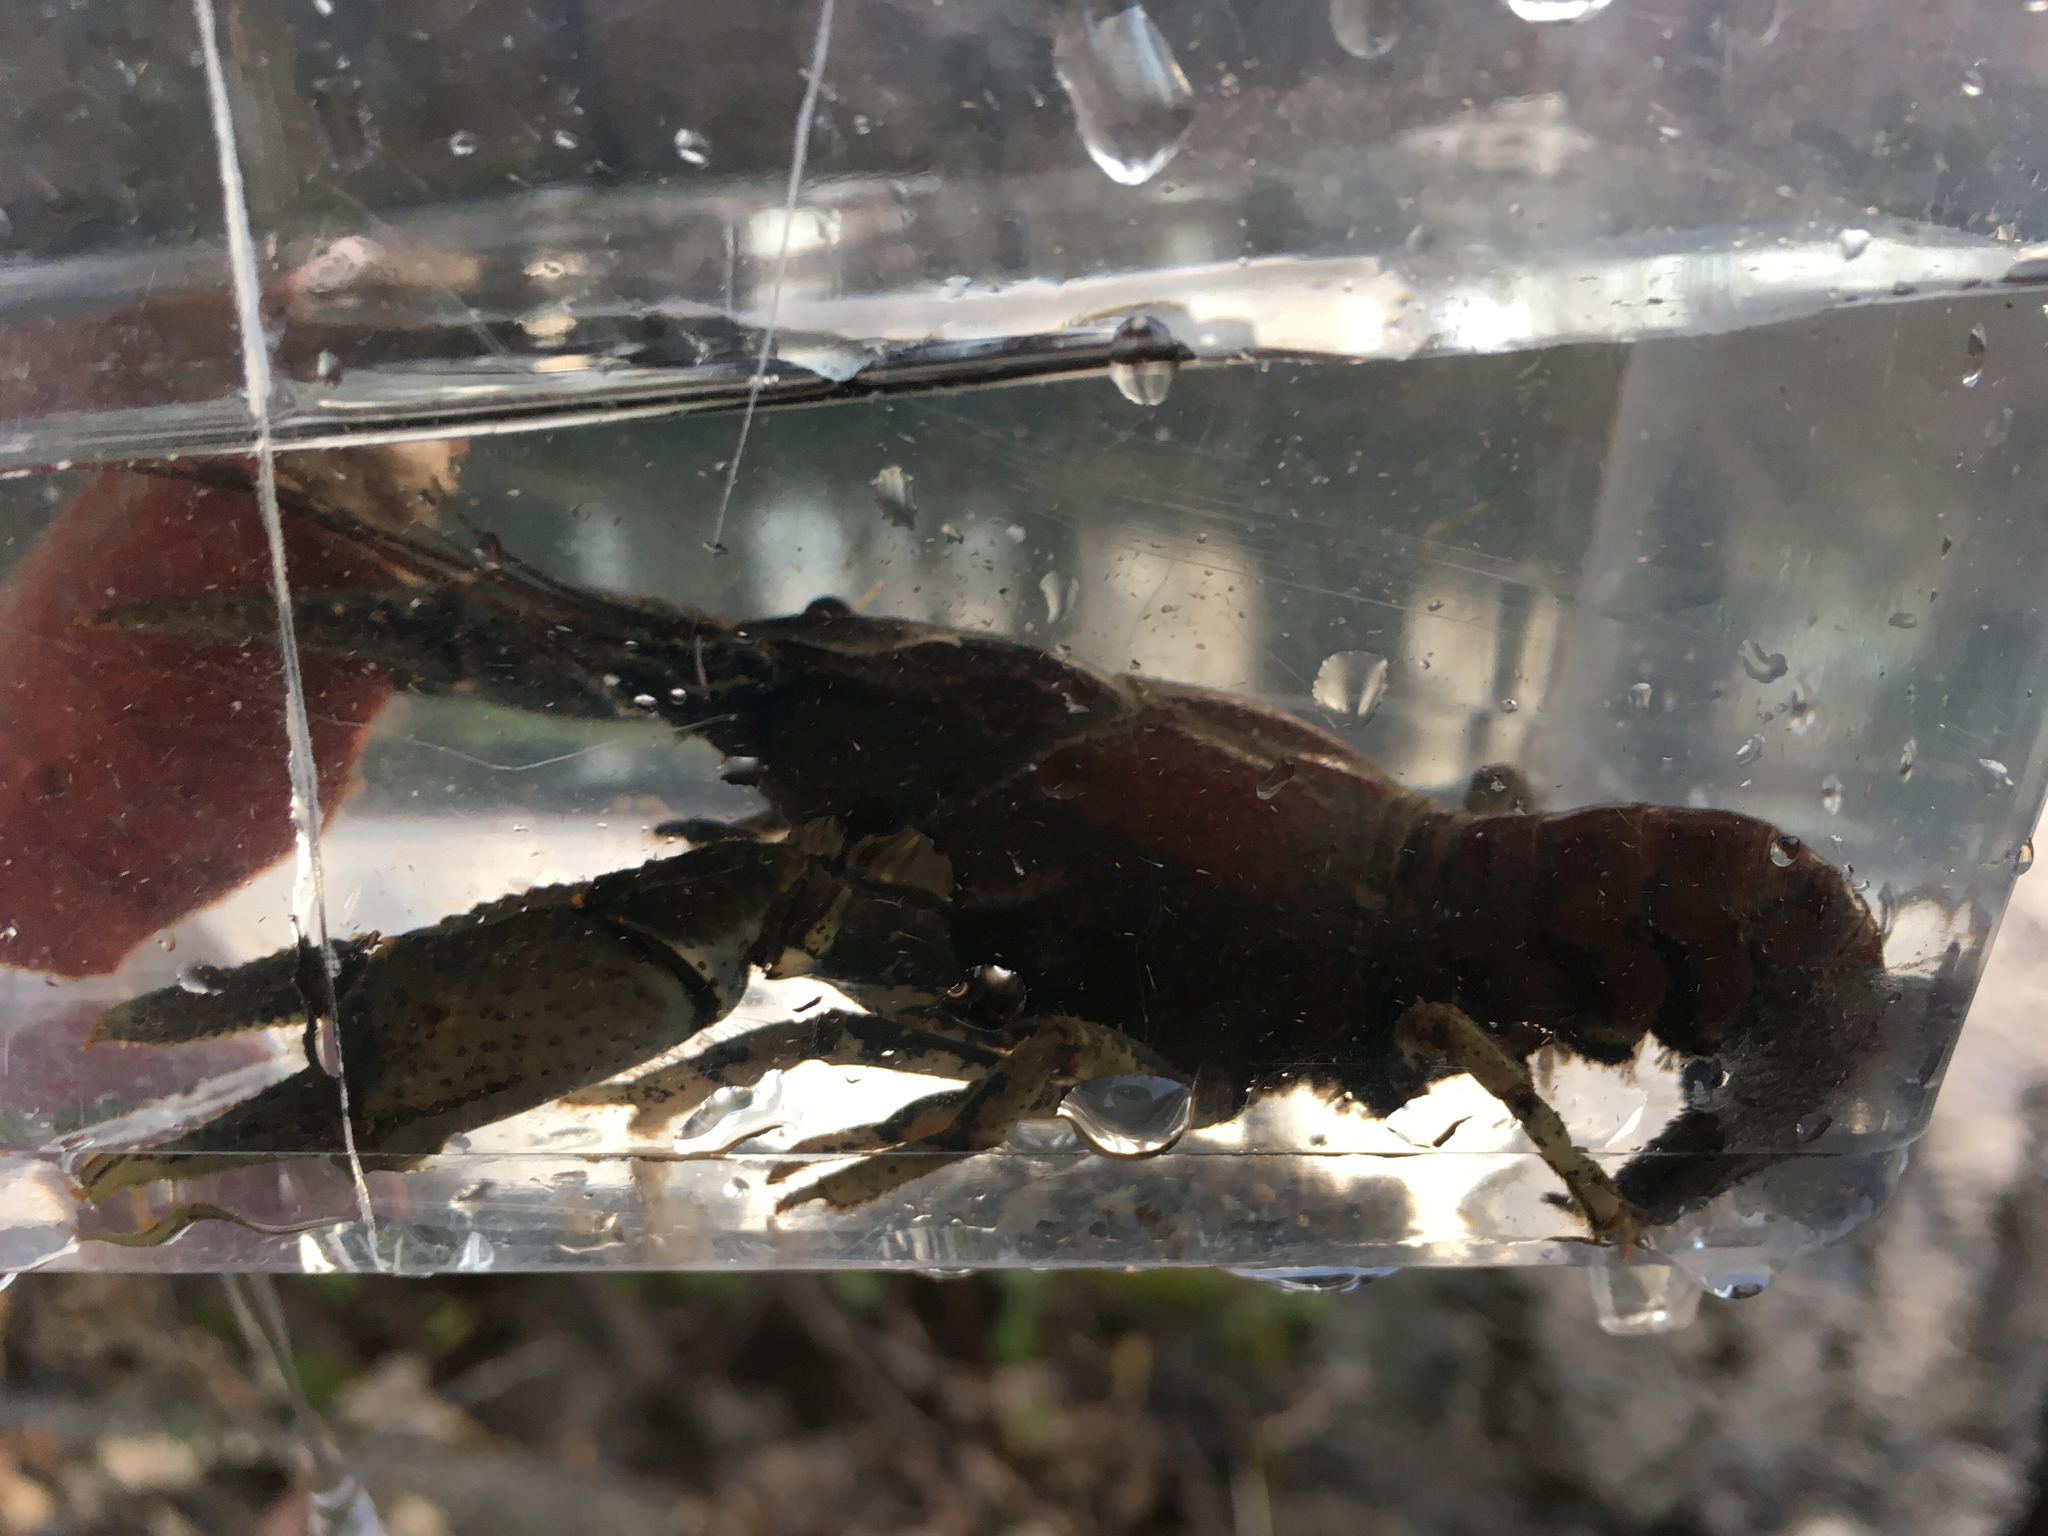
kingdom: Animalia
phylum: Arthropoda
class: Malacostraca
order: Decapoda
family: Cambaridae
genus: Faxonius
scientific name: Faxonius virilis
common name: Virile crayfish
